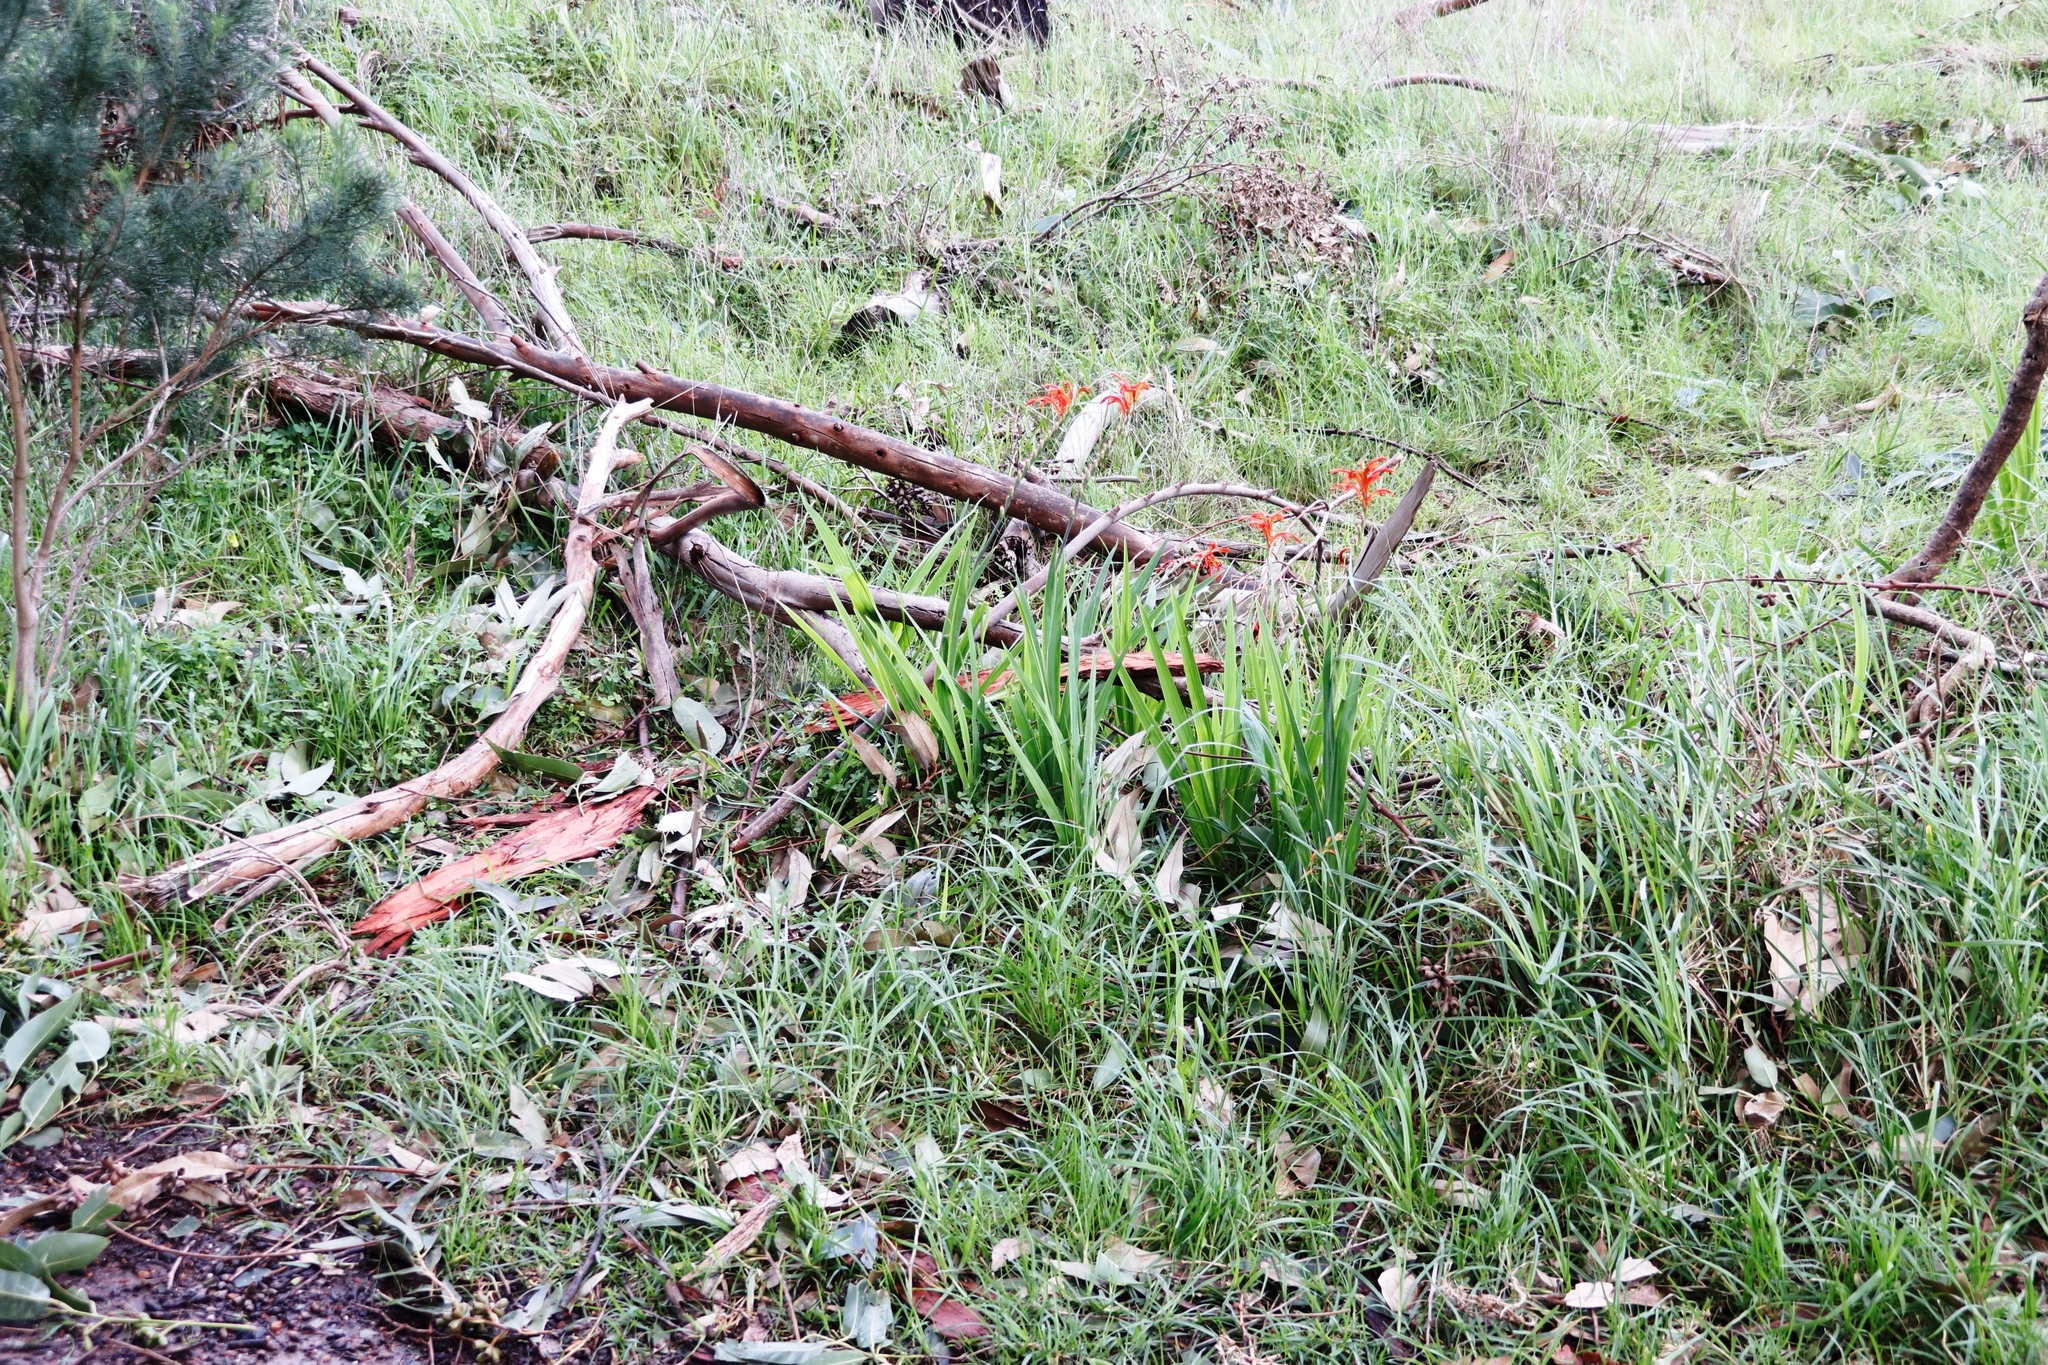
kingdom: Plantae
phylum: Tracheophyta
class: Liliopsida
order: Asparagales
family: Iridaceae
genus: Chasmanthe
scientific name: Chasmanthe aethiopica
